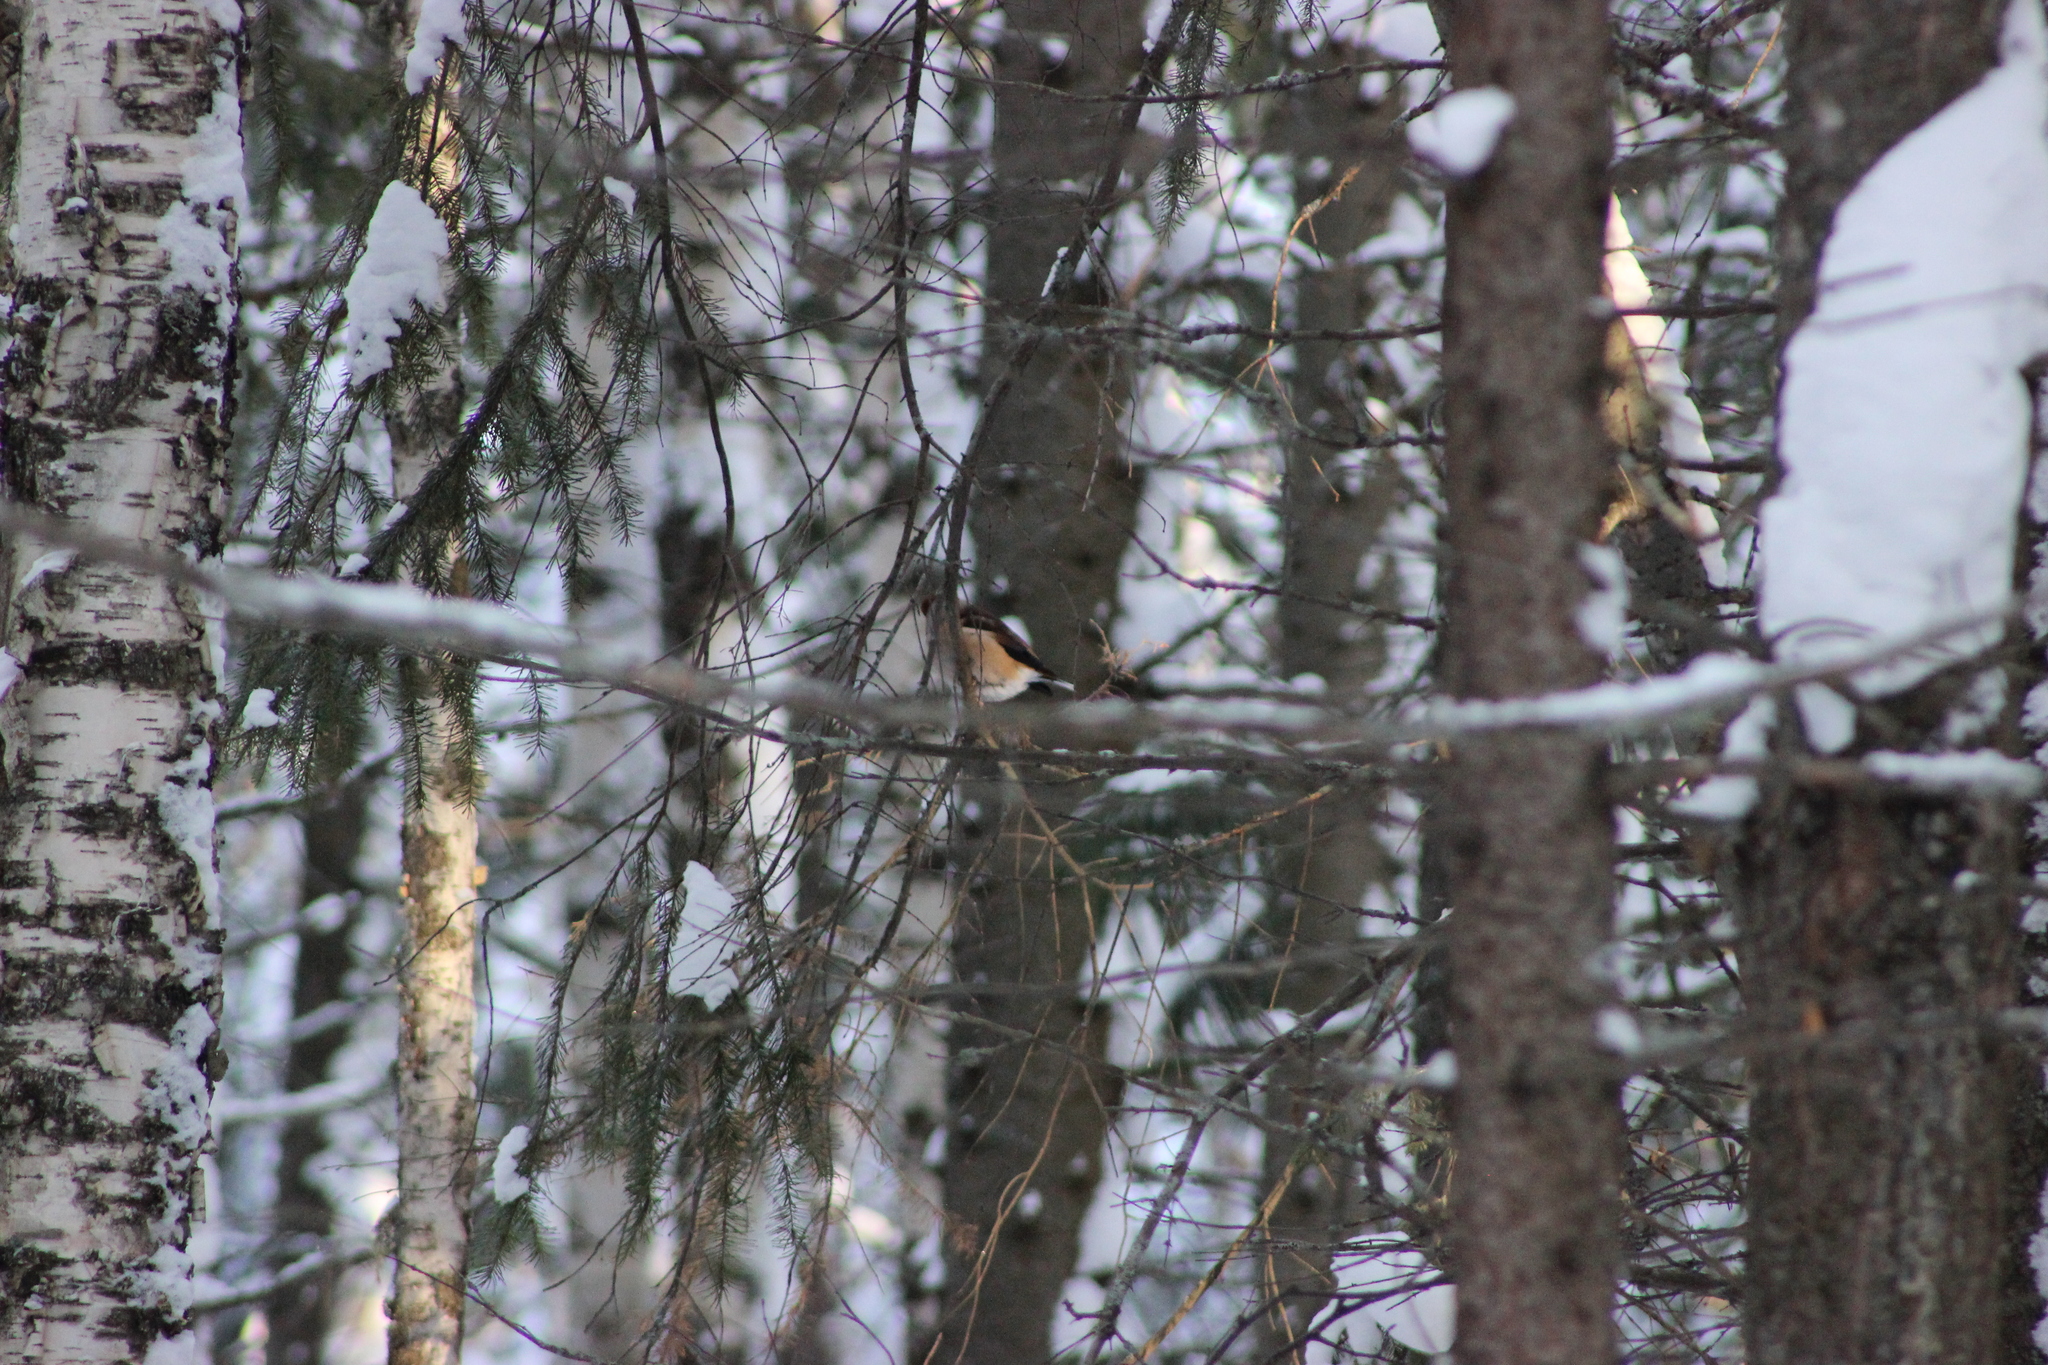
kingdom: Animalia
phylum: Chordata
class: Aves
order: Passeriformes
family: Fringillidae
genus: Coccothraustes
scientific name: Coccothraustes coccothraustes
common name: Hawfinch
